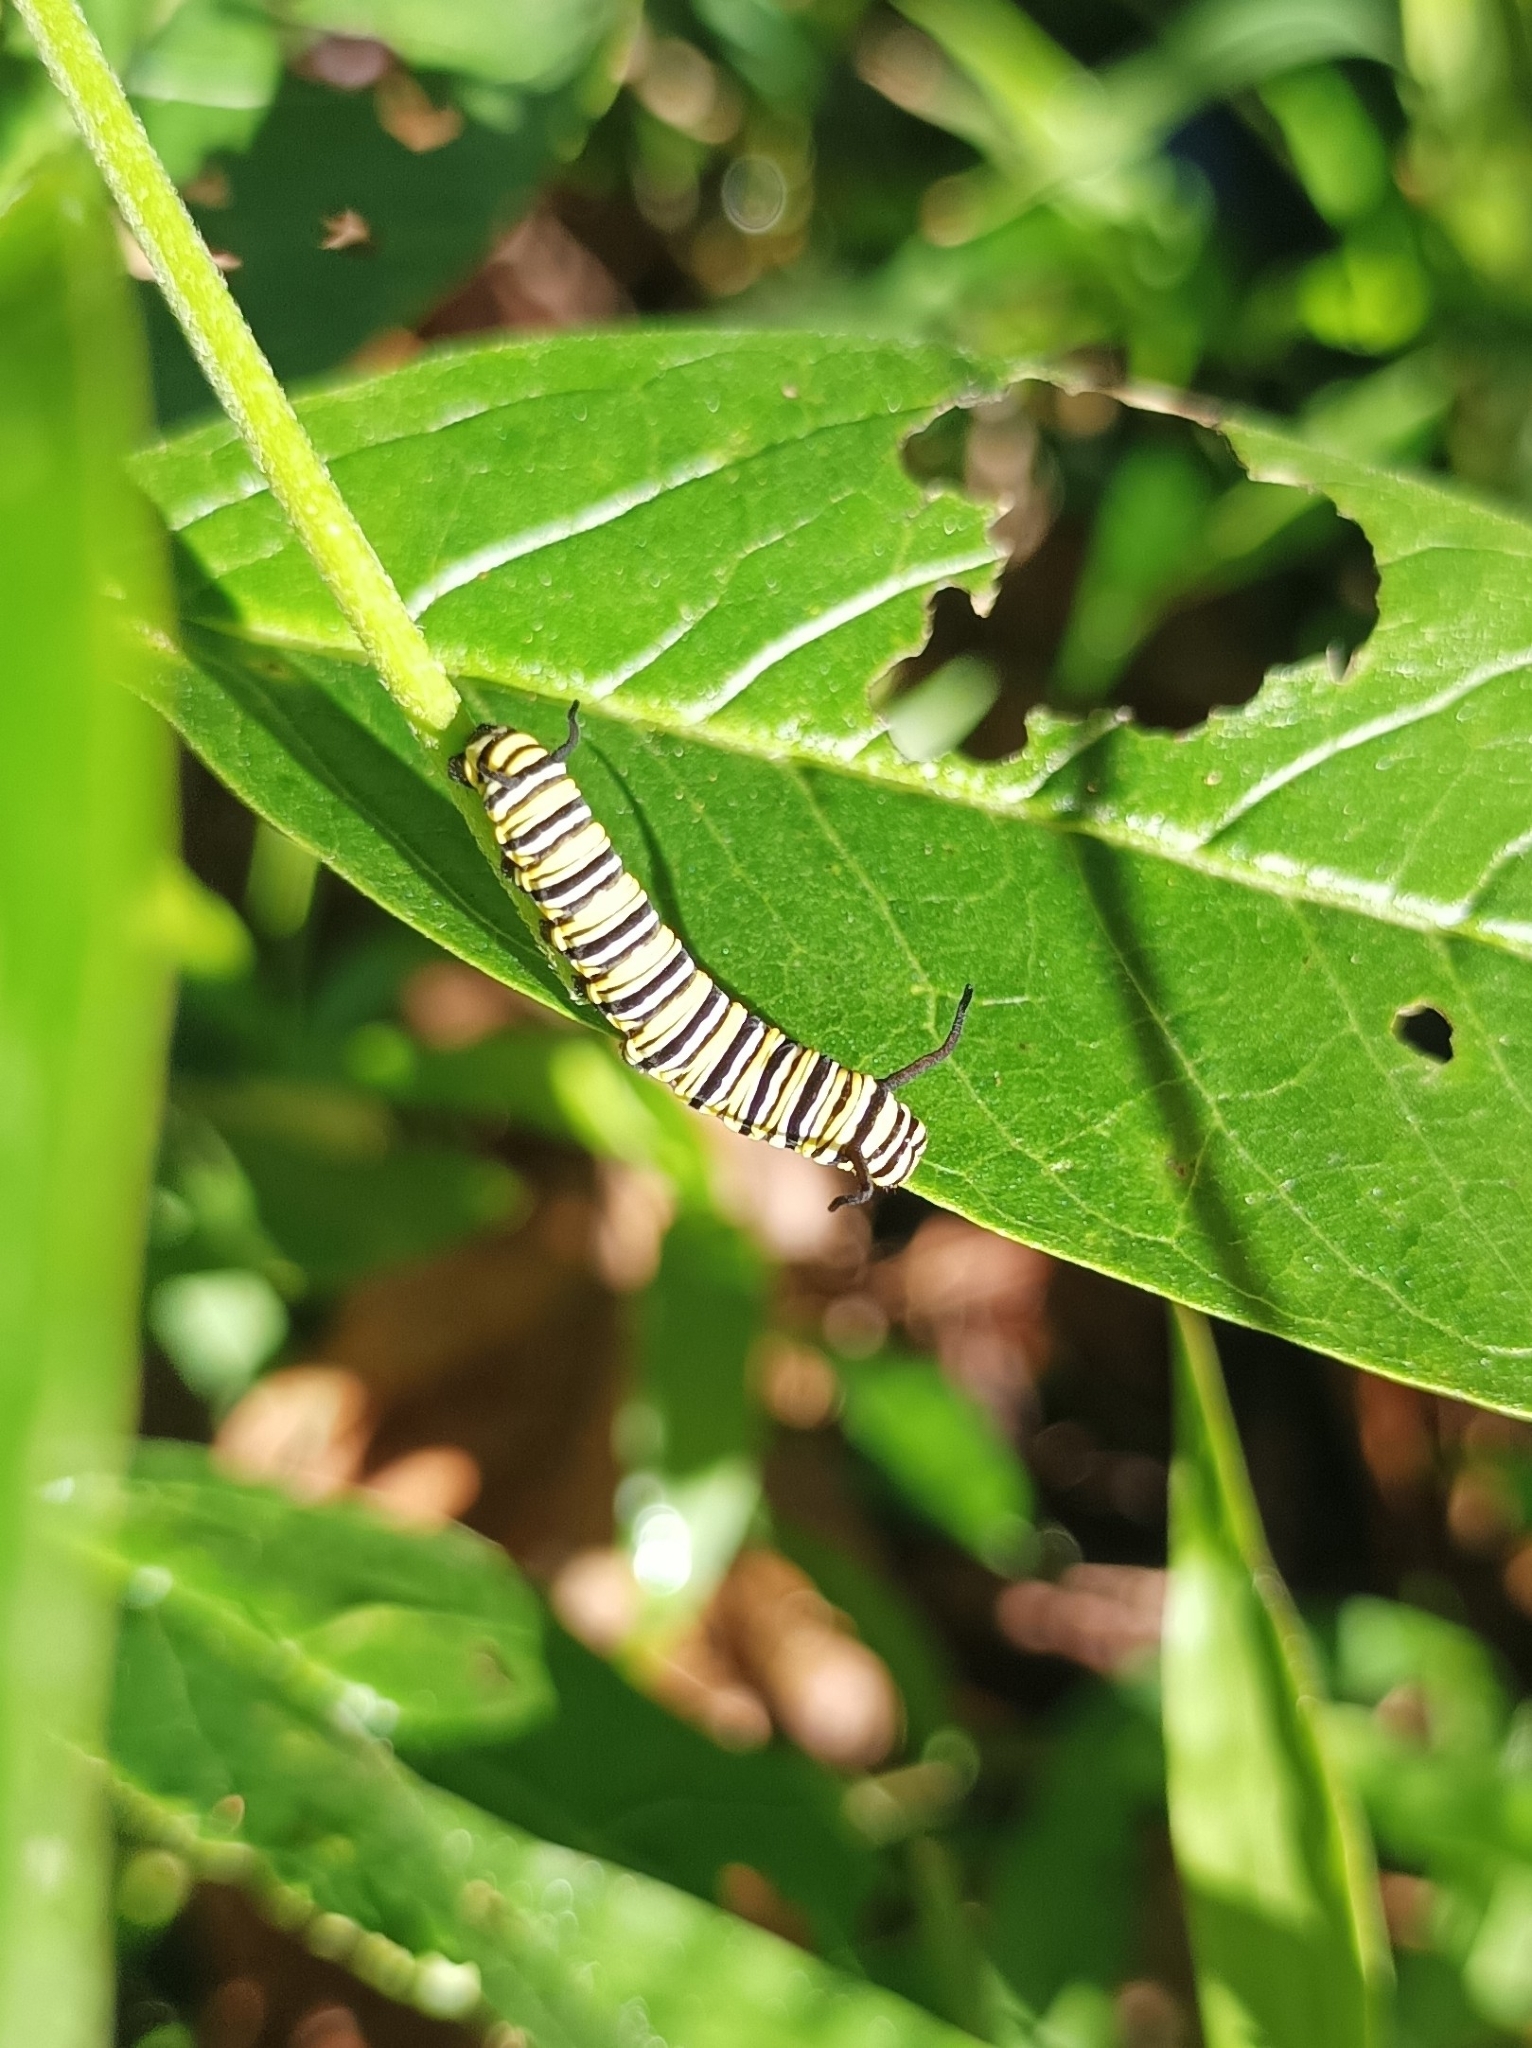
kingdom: Animalia
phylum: Arthropoda
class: Insecta
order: Lepidoptera
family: Nymphalidae
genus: Danaus
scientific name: Danaus plexippus
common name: Monarch
